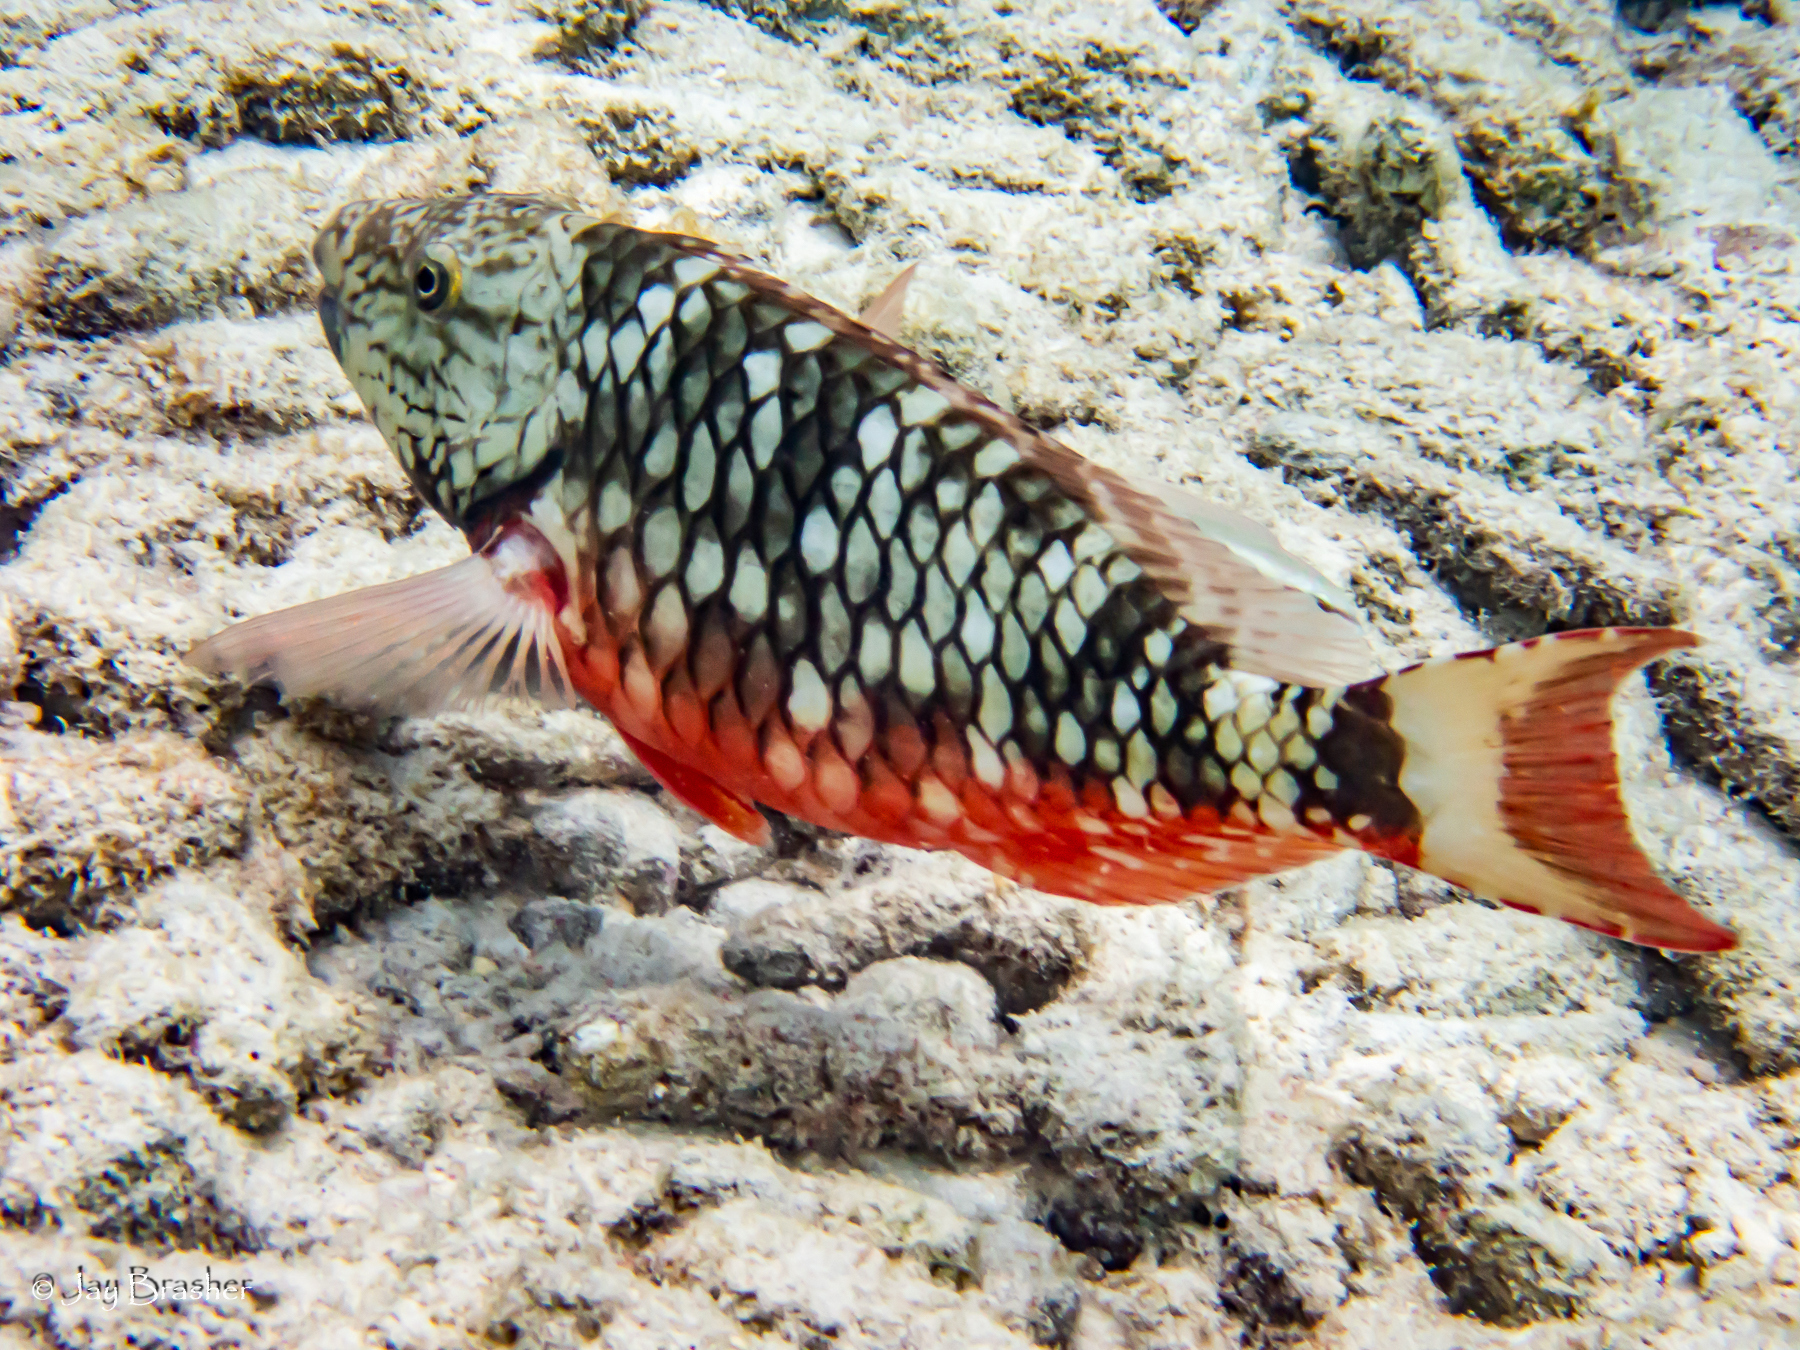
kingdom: Animalia
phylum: Chordata
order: Perciformes
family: Scaridae
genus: Sparisoma
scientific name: Sparisoma viride
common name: Stoplight parrotfish
